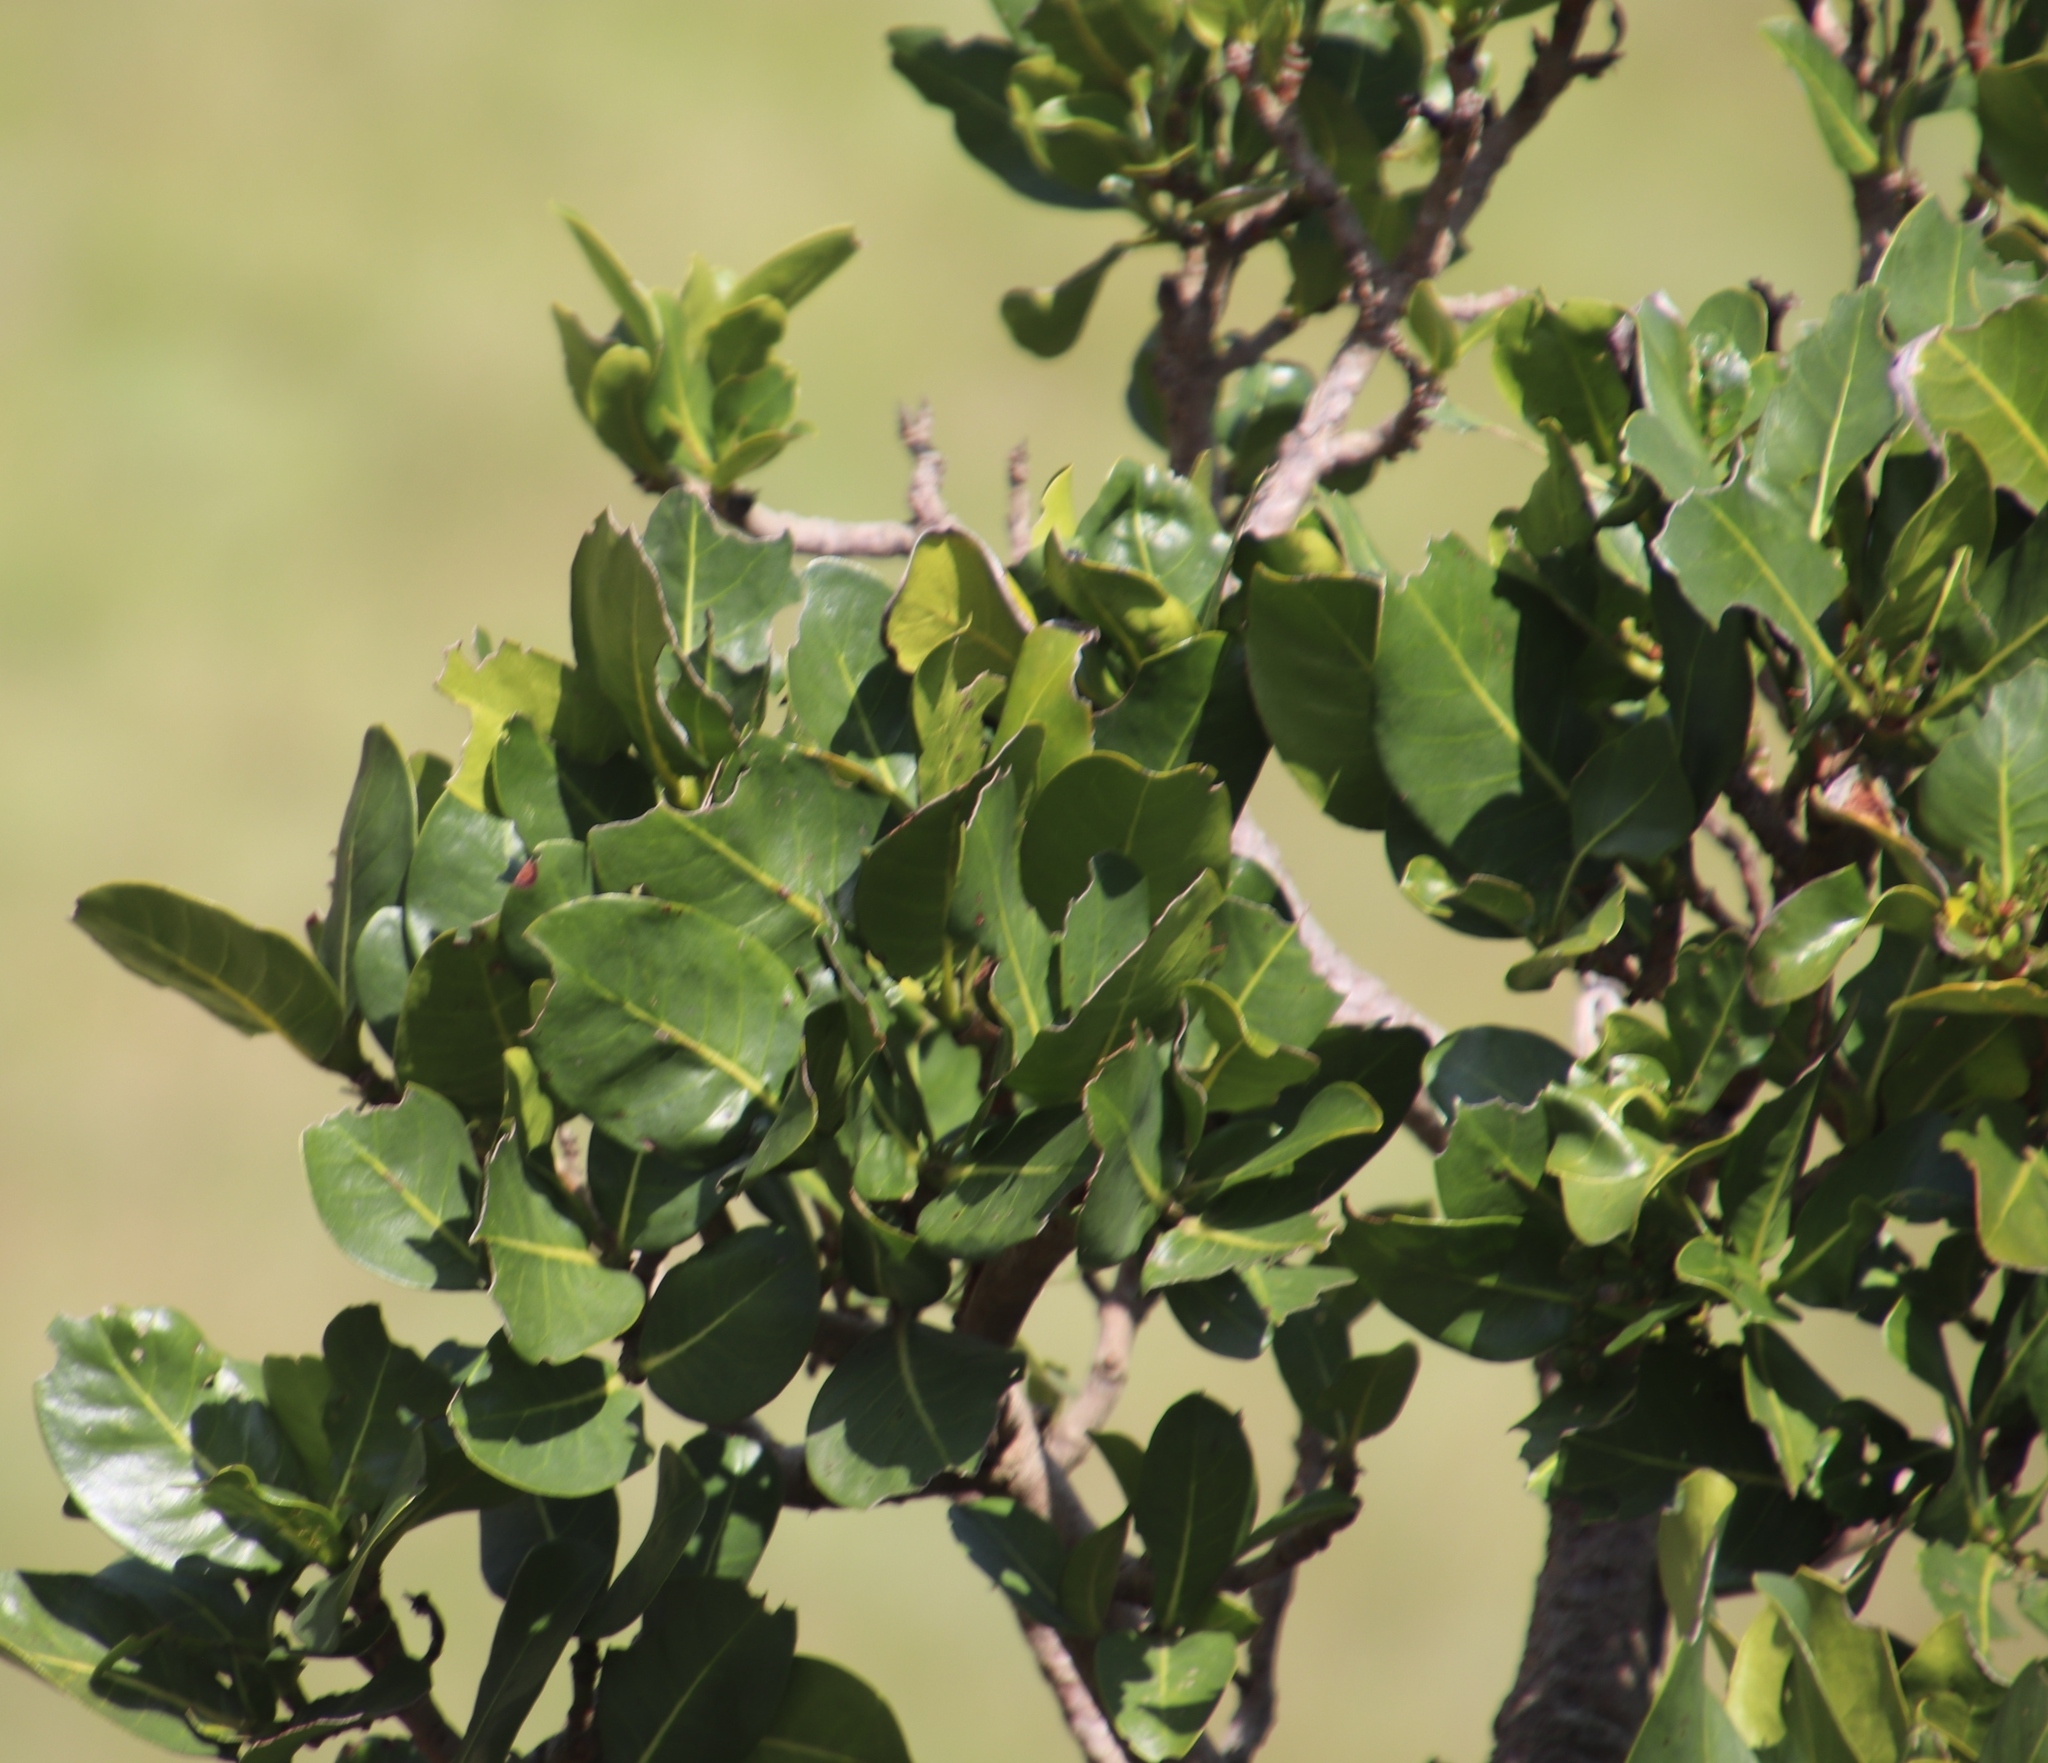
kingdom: Plantae
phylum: Tracheophyta
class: Magnoliopsida
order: Gentianales
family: Rubiaceae
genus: Psychotria
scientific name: Psychotria
